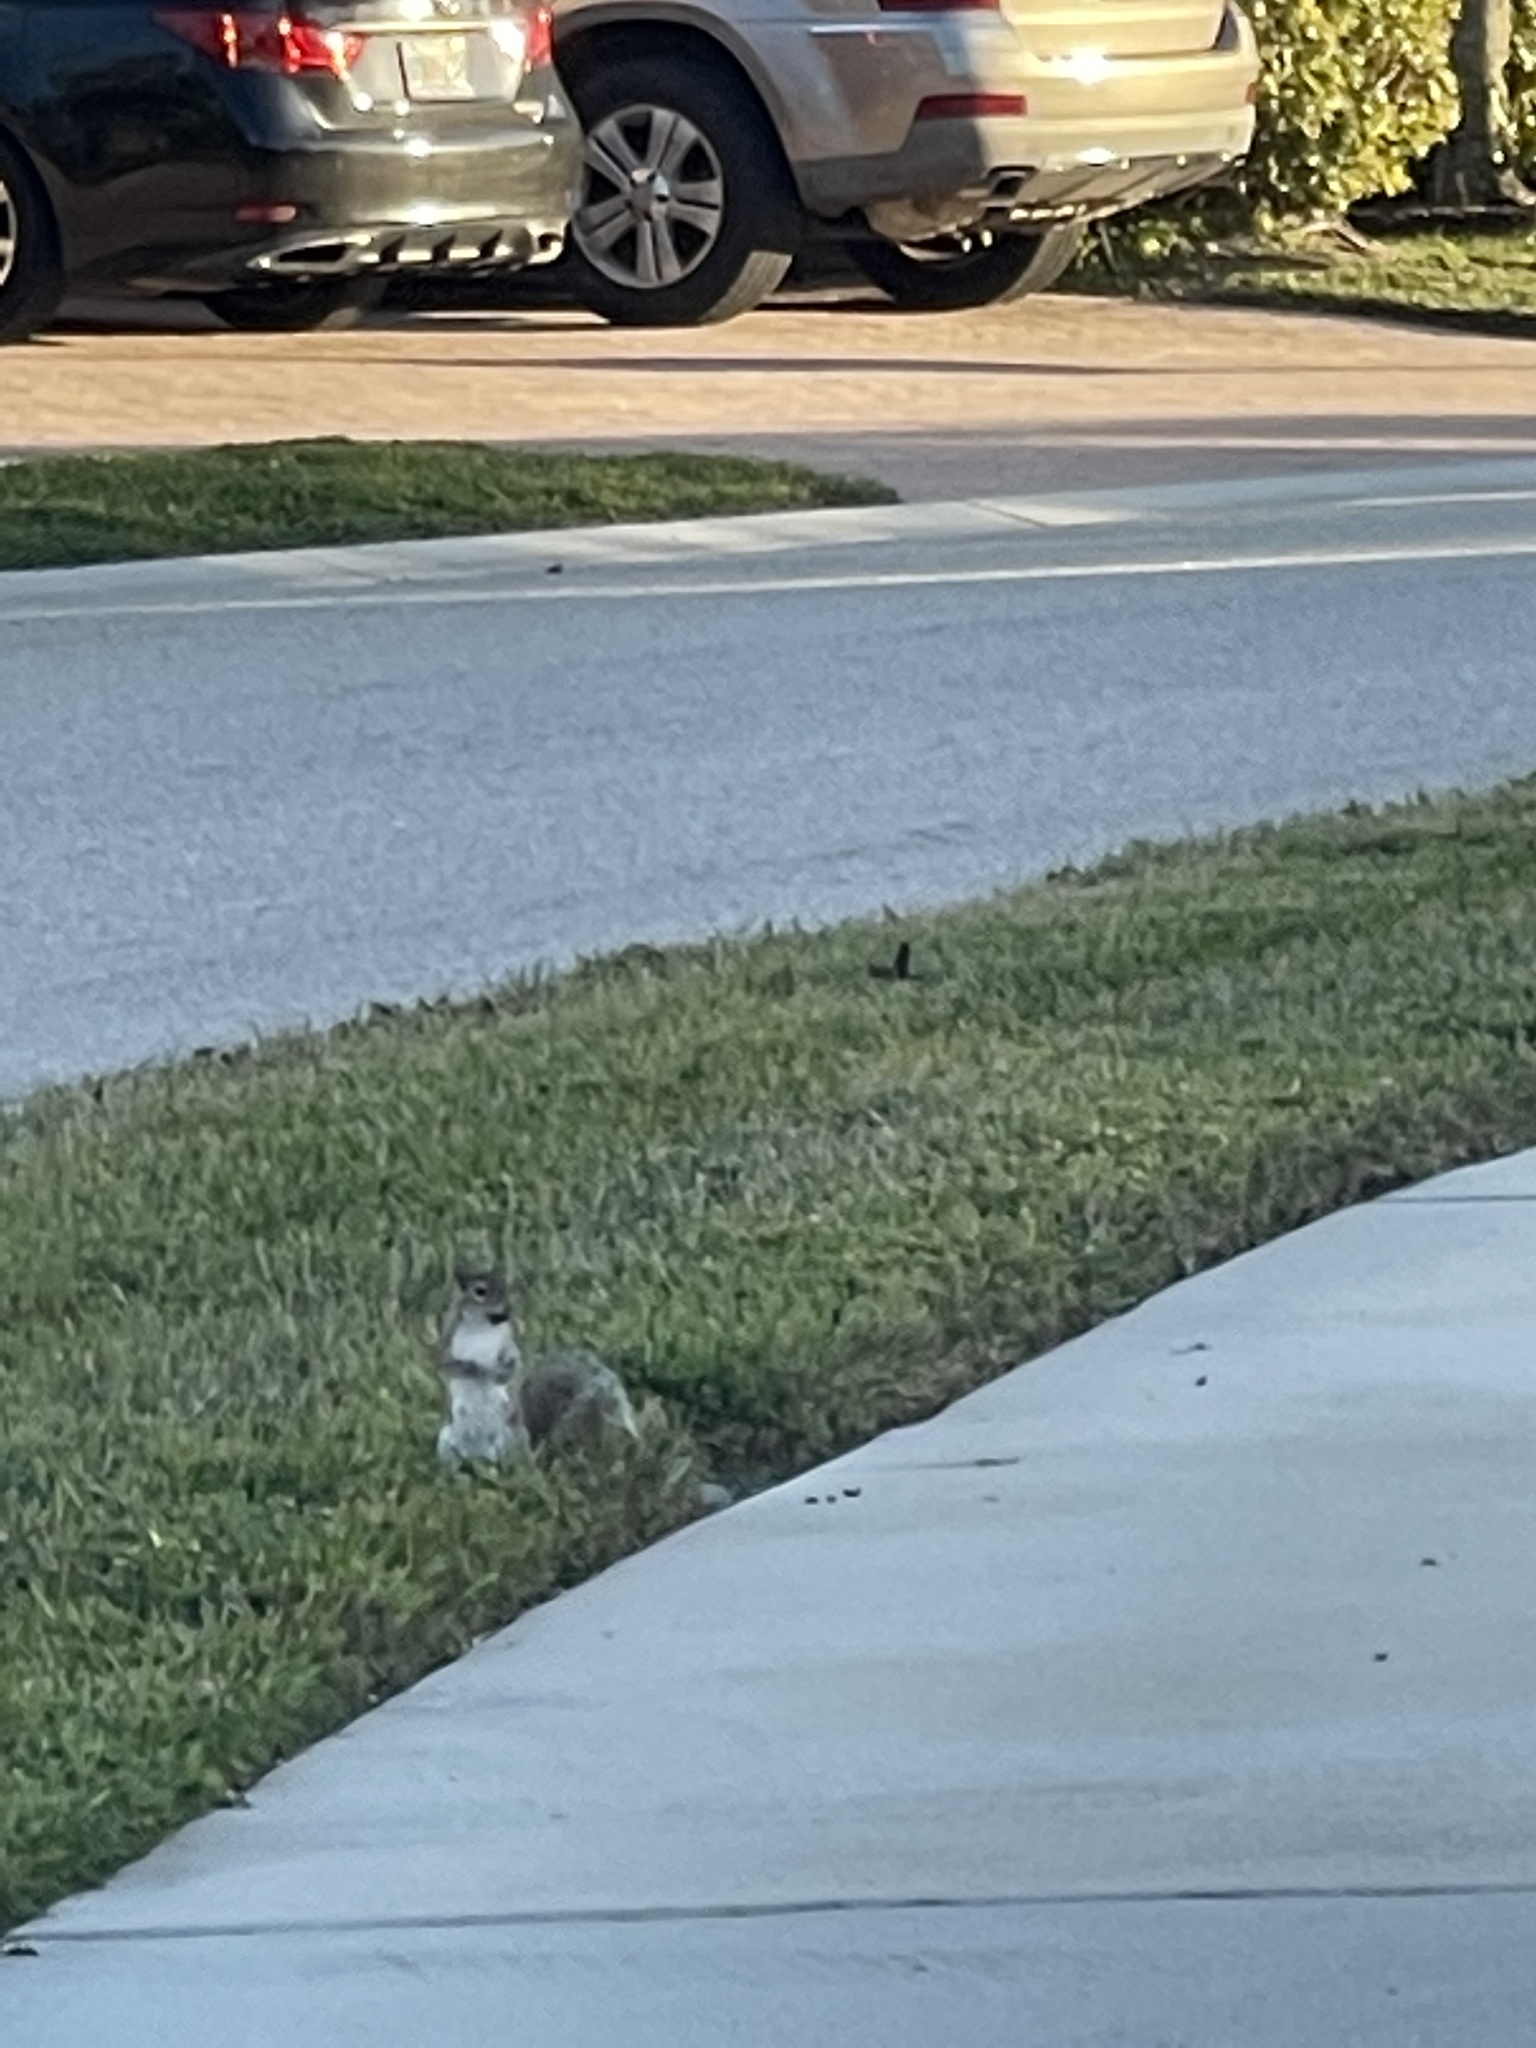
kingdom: Animalia
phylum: Chordata
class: Mammalia
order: Rodentia
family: Sciuridae
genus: Sciurus
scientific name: Sciurus carolinensis
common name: Eastern gray squirrel
